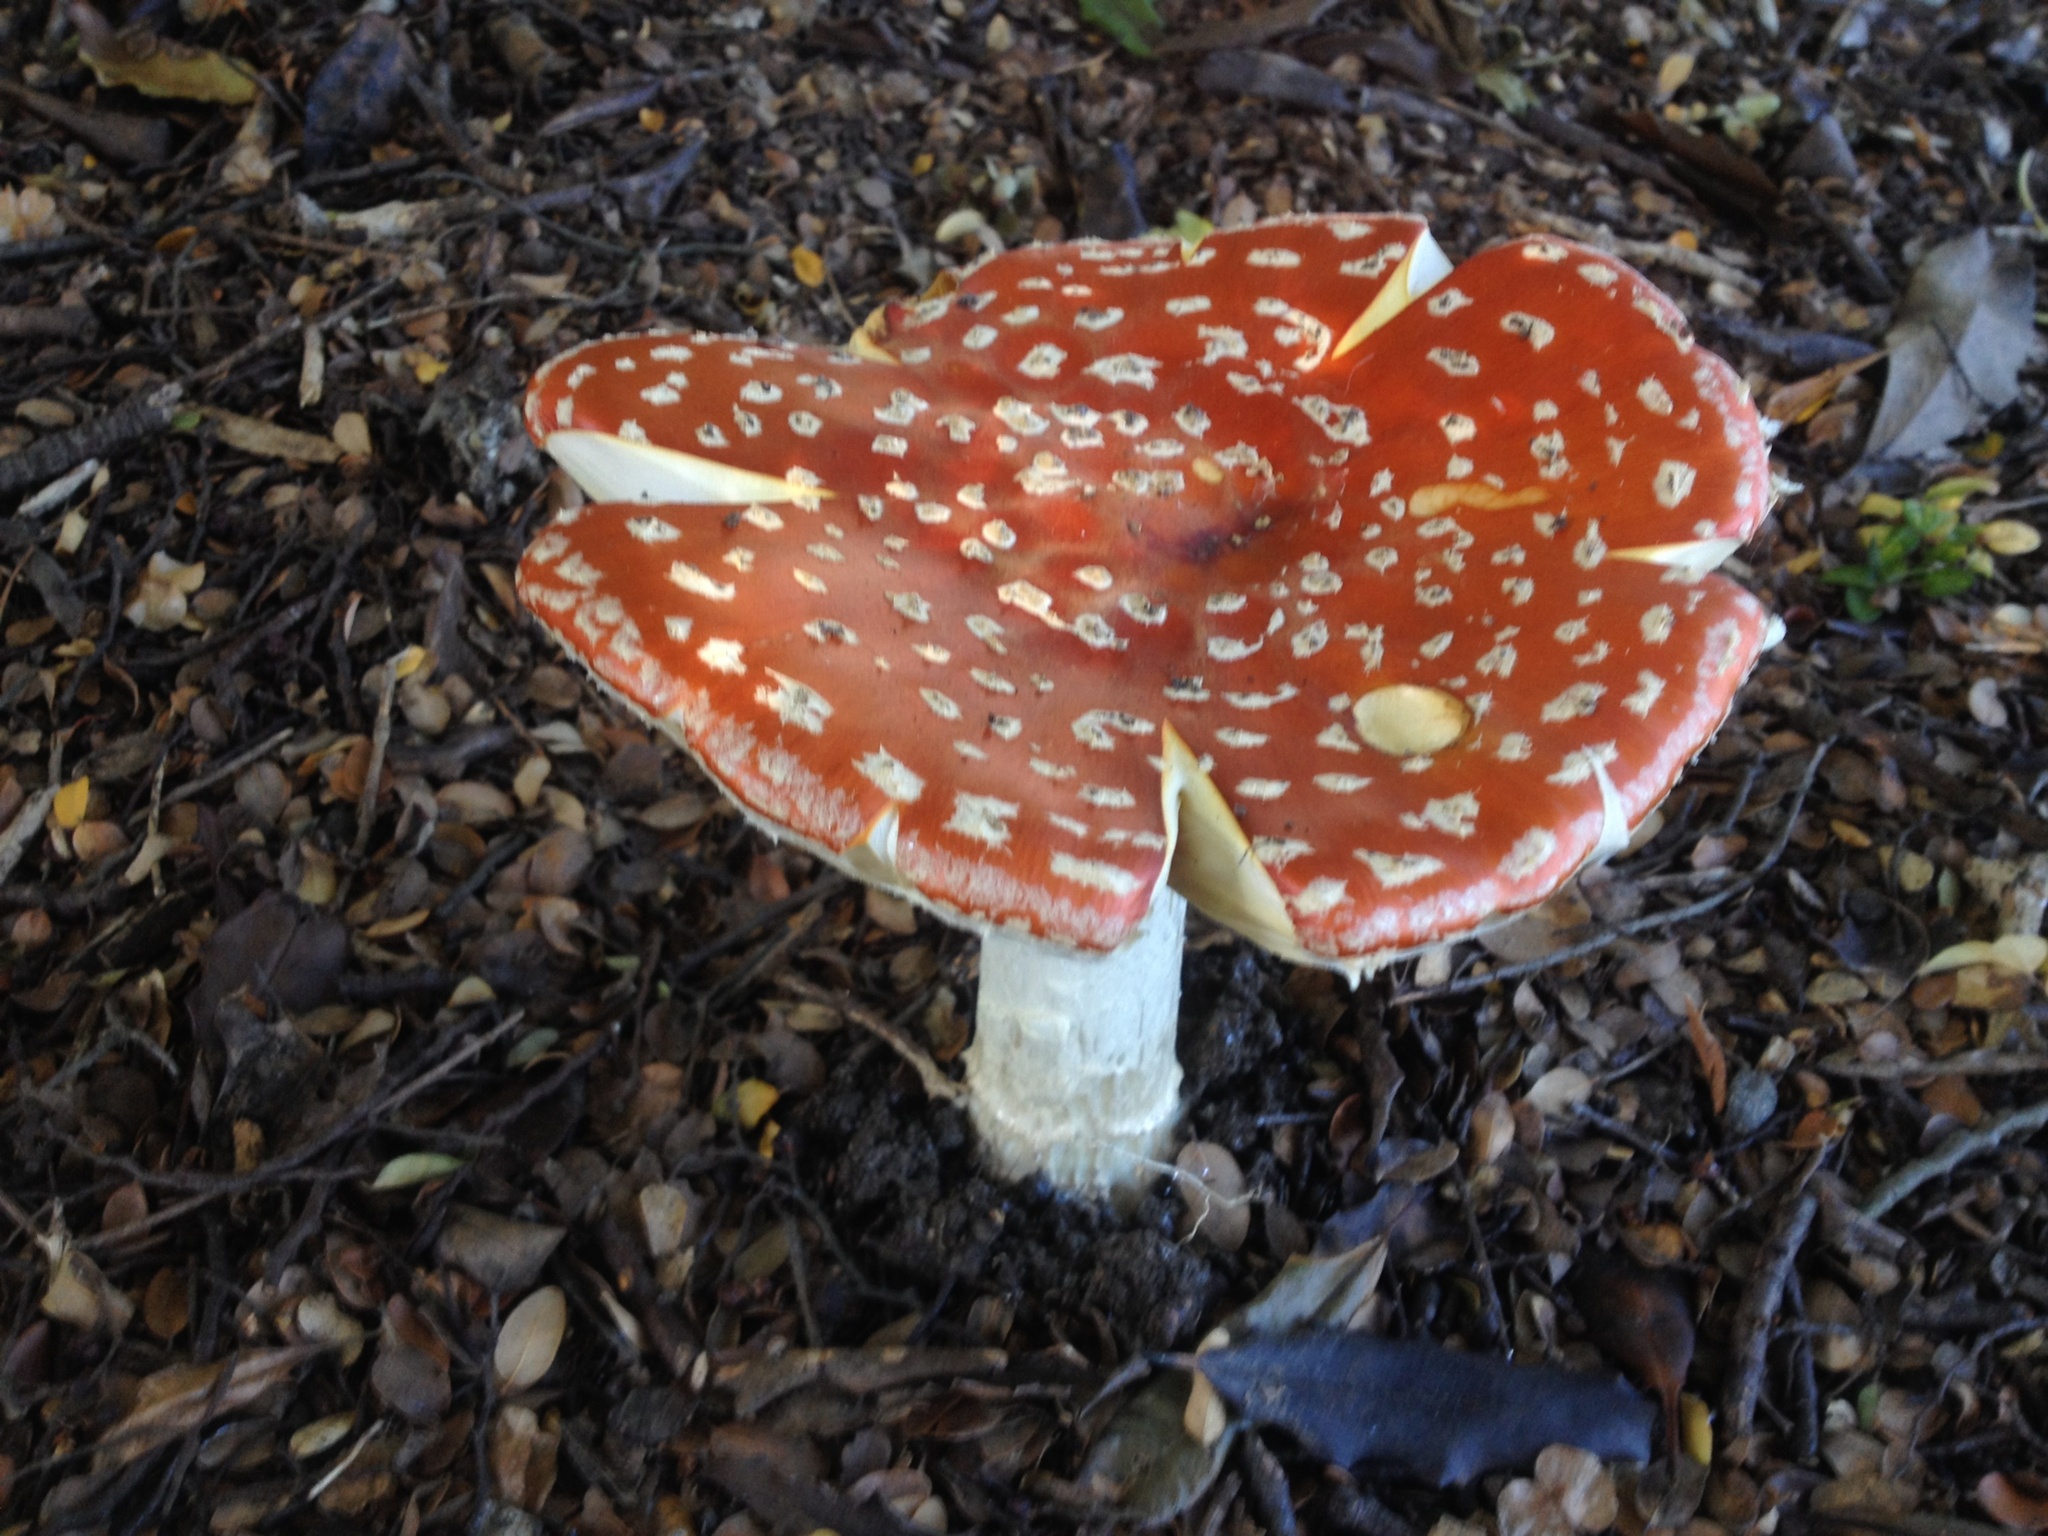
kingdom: Fungi
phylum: Basidiomycota
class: Agaricomycetes
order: Agaricales
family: Amanitaceae
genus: Amanita
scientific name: Amanita muscaria
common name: Fly agaric
